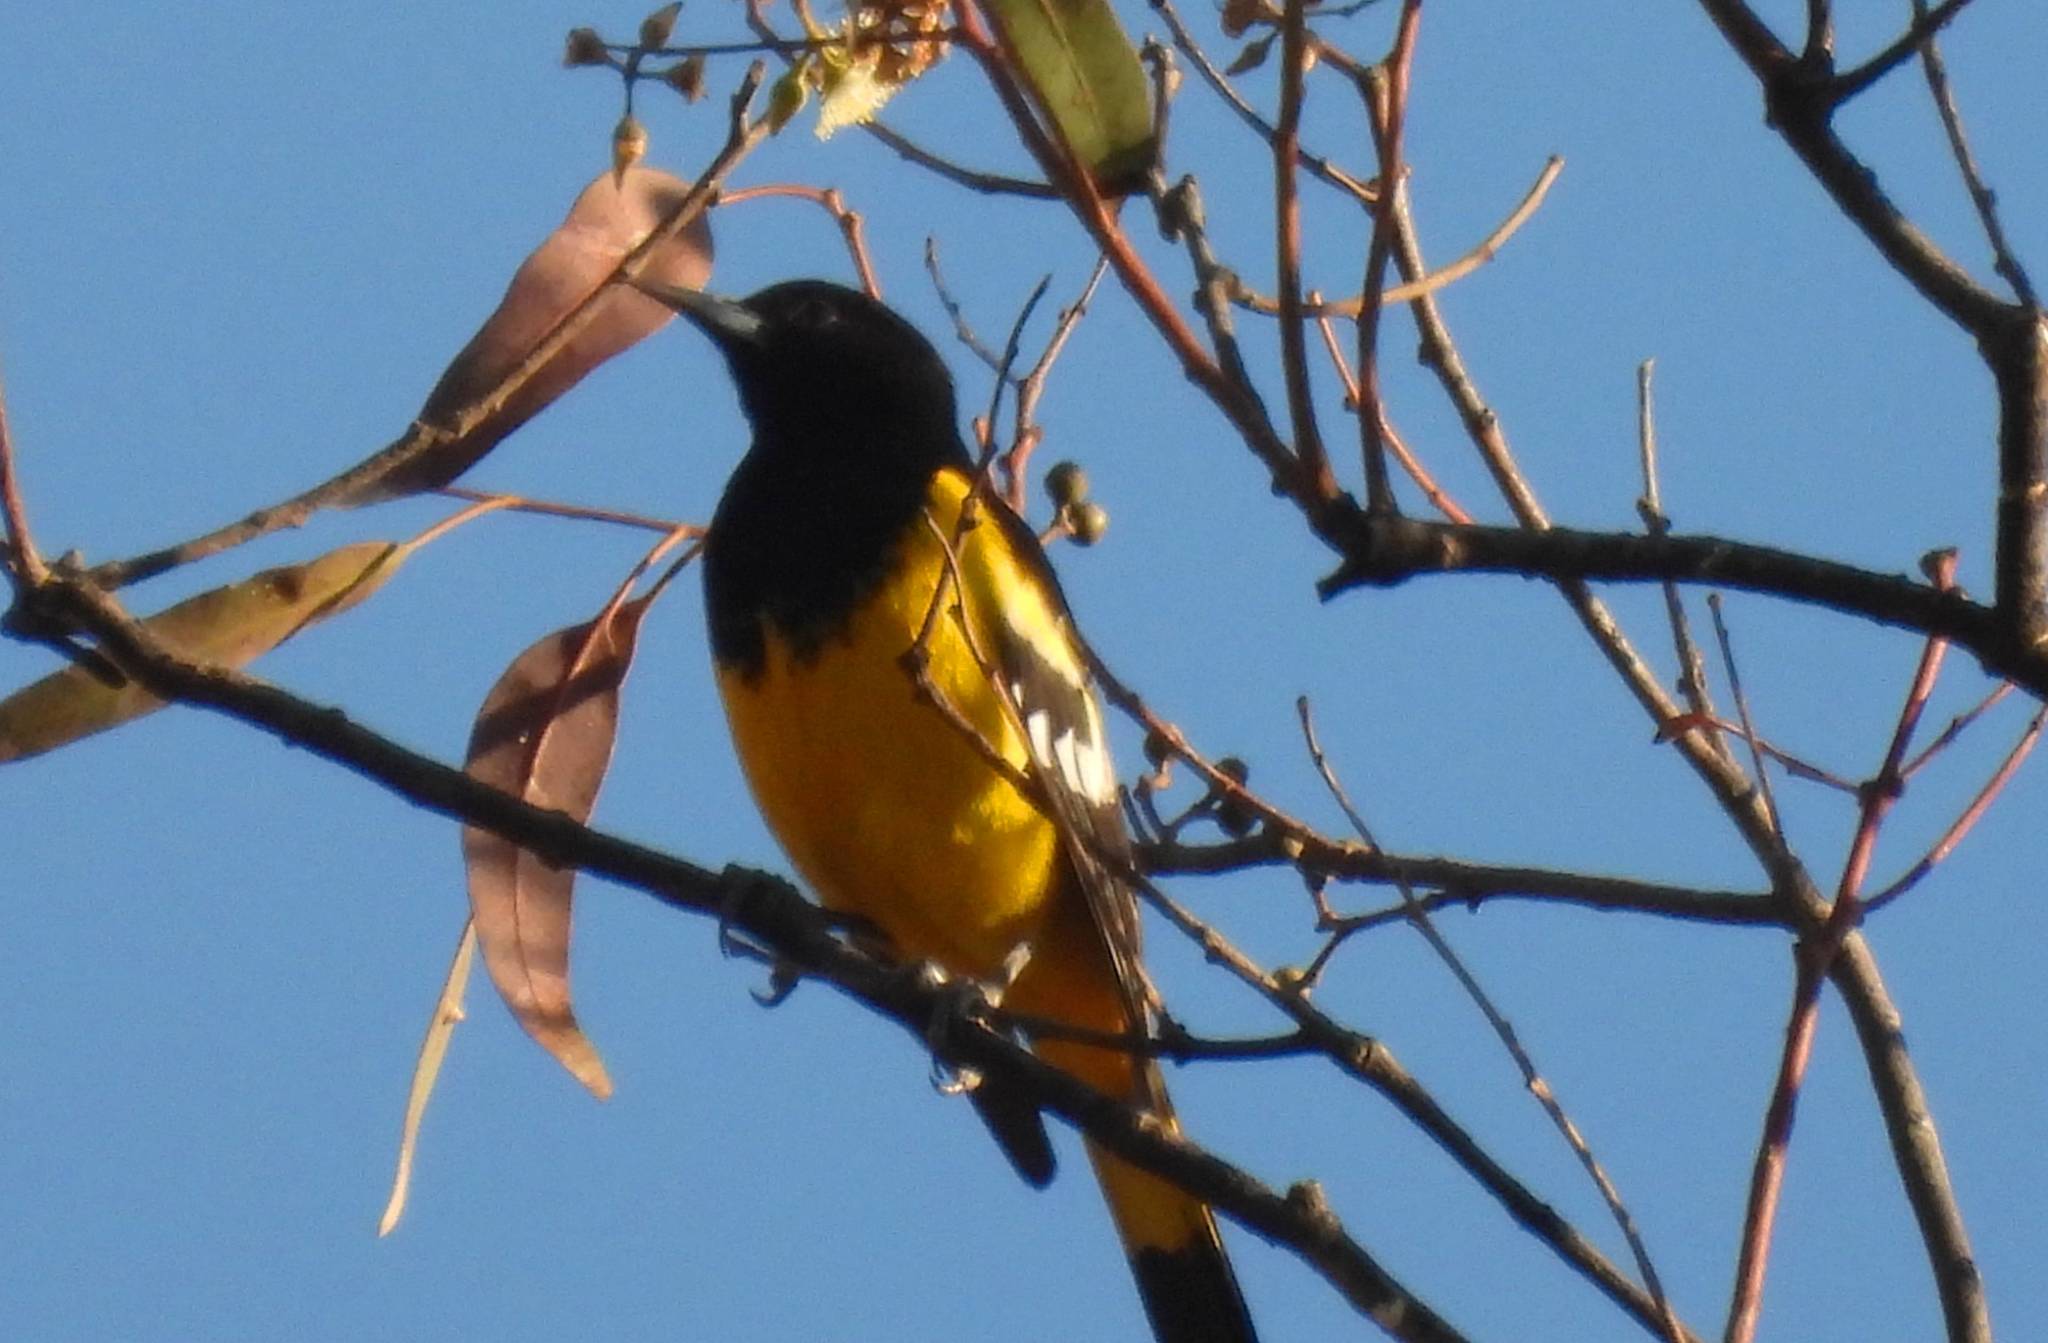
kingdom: Animalia
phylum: Chordata
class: Aves
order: Passeriformes
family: Icteridae
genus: Icterus
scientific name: Icterus parisorum
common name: Scott's oriole
